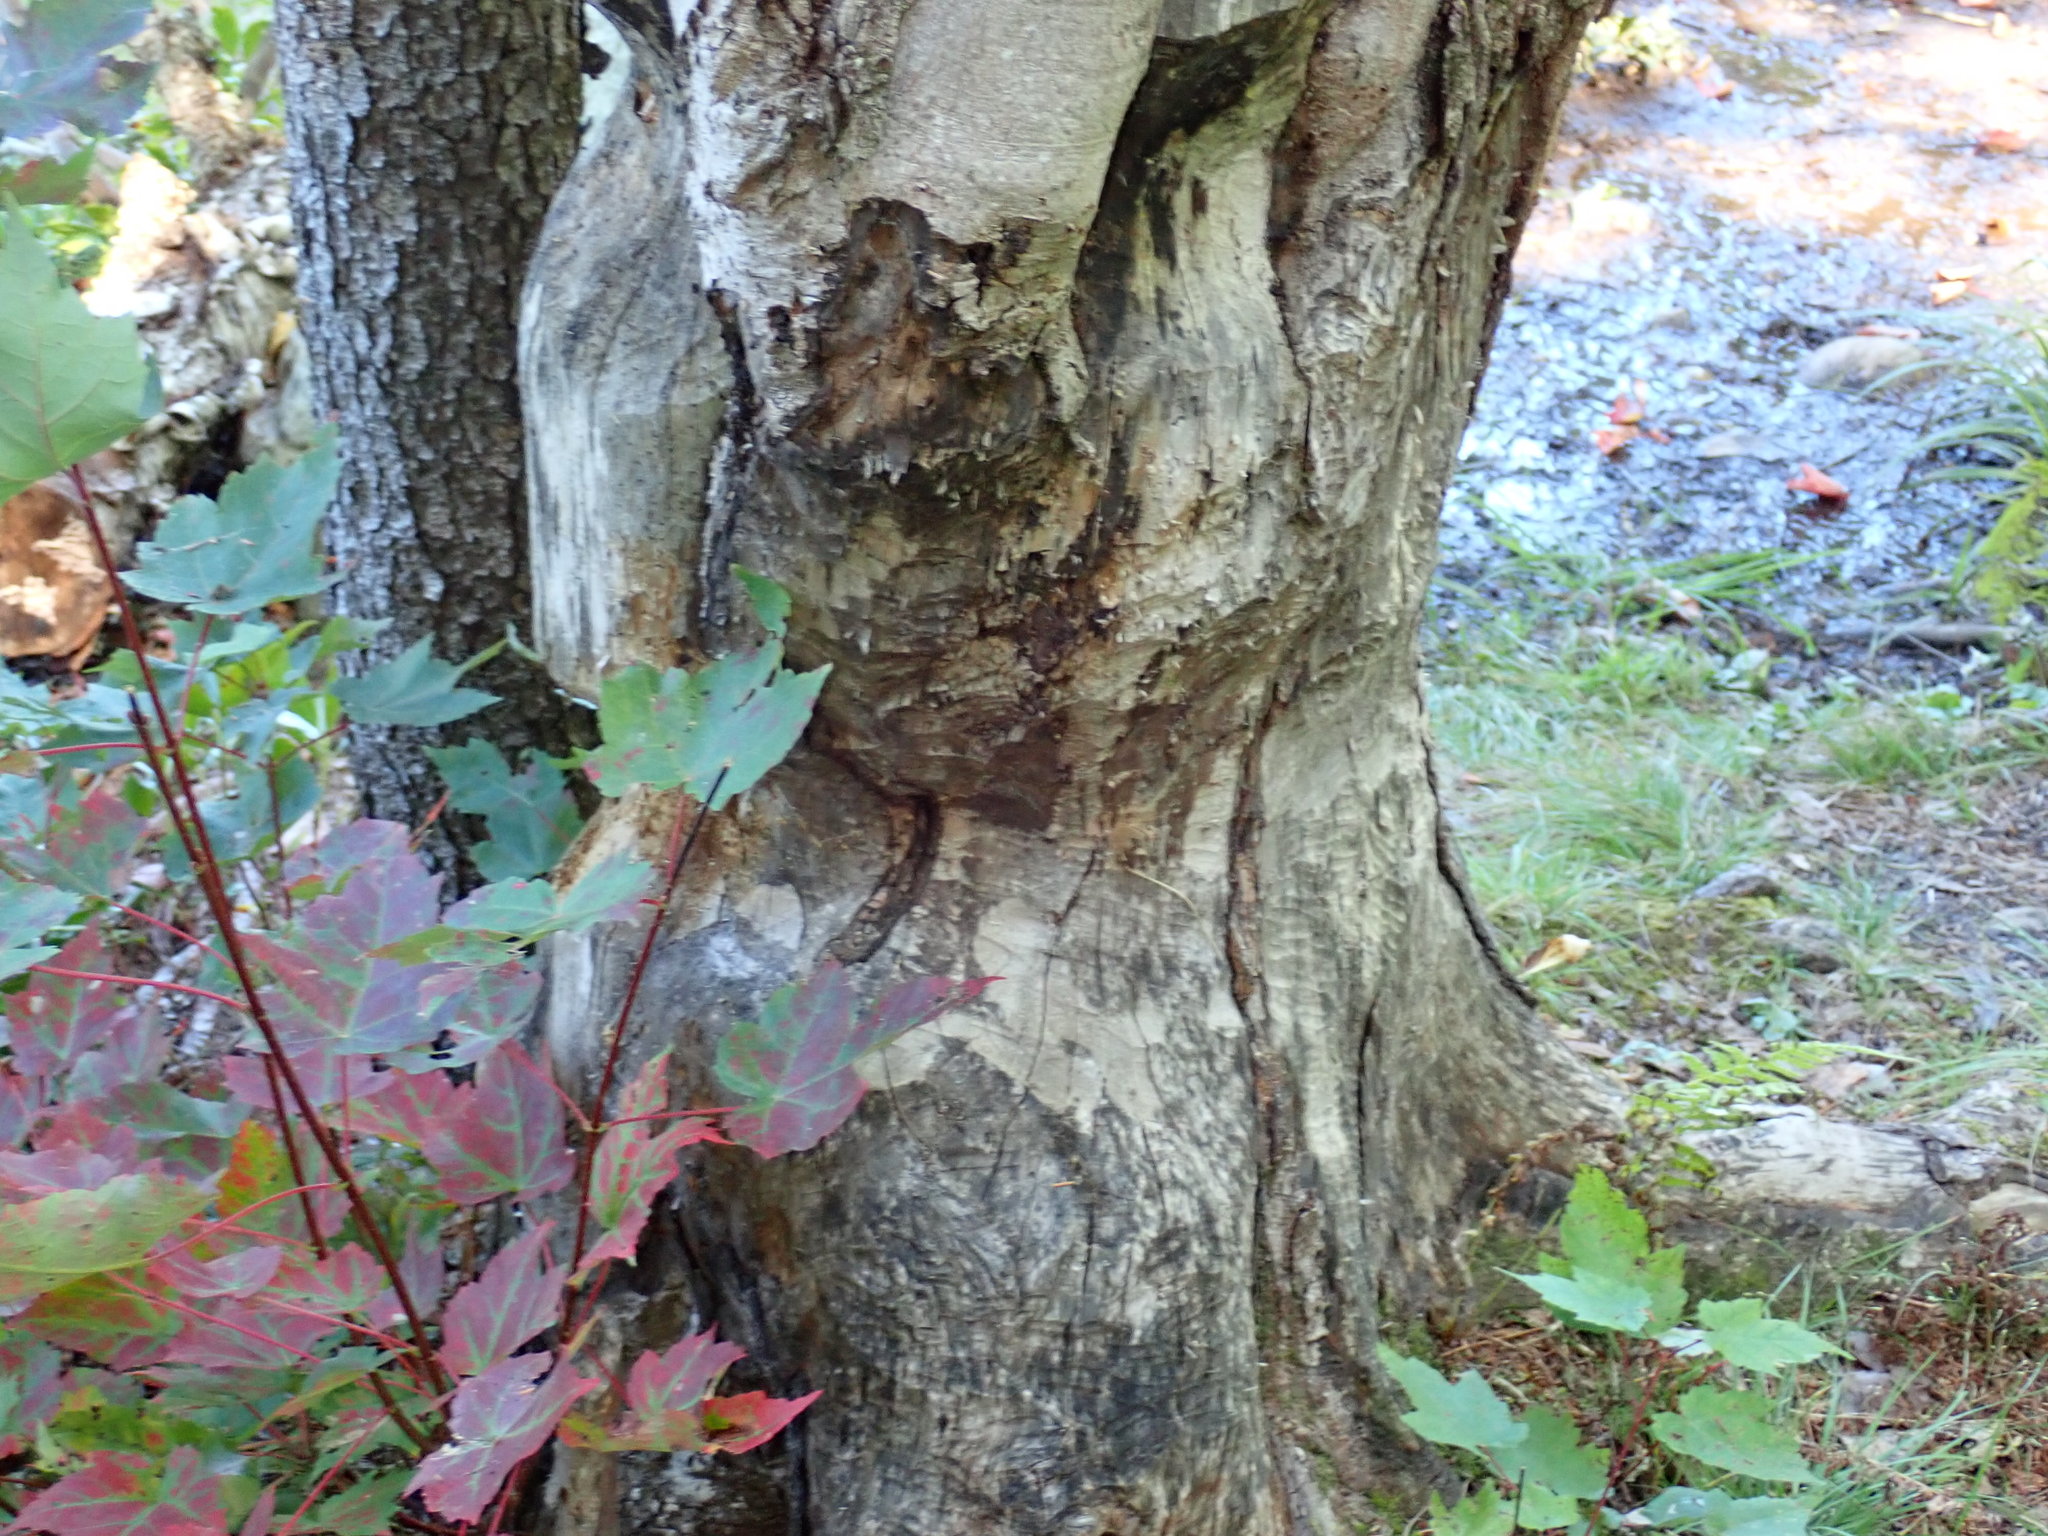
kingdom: Animalia
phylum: Chordata
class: Mammalia
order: Rodentia
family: Castoridae
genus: Castor
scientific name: Castor canadensis
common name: American beaver
